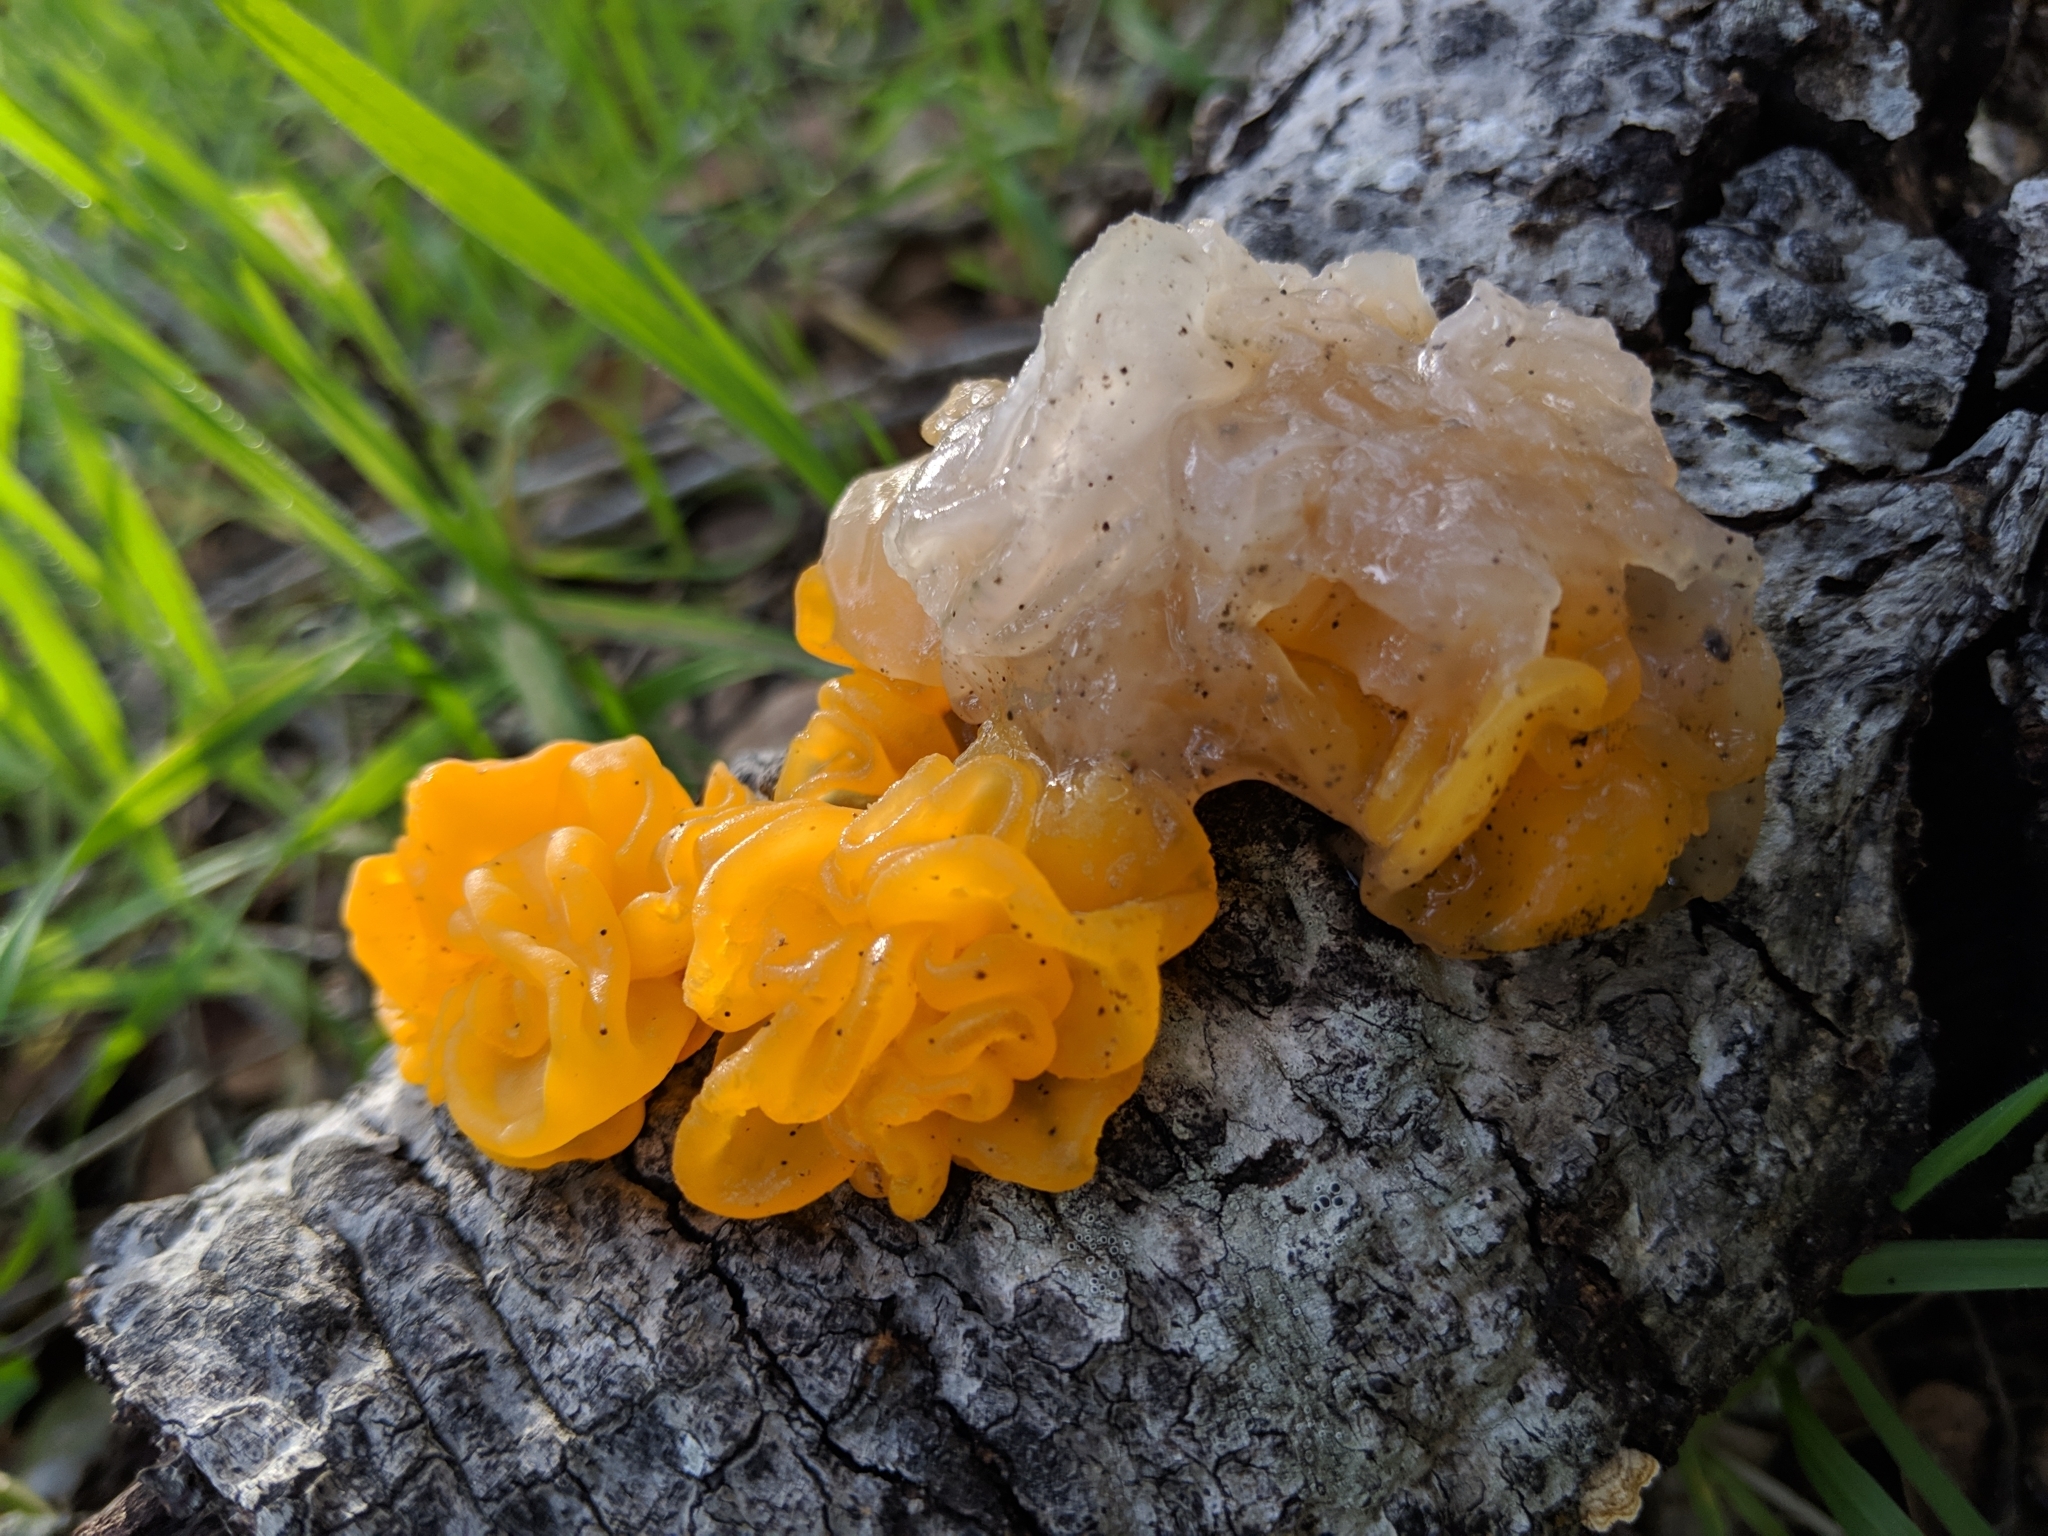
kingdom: Fungi
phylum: Basidiomycota
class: Tremellomycetes
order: Tremellales
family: Naemateliaceae
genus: Naematelia
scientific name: Naematelia aurantia
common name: Golden ear
